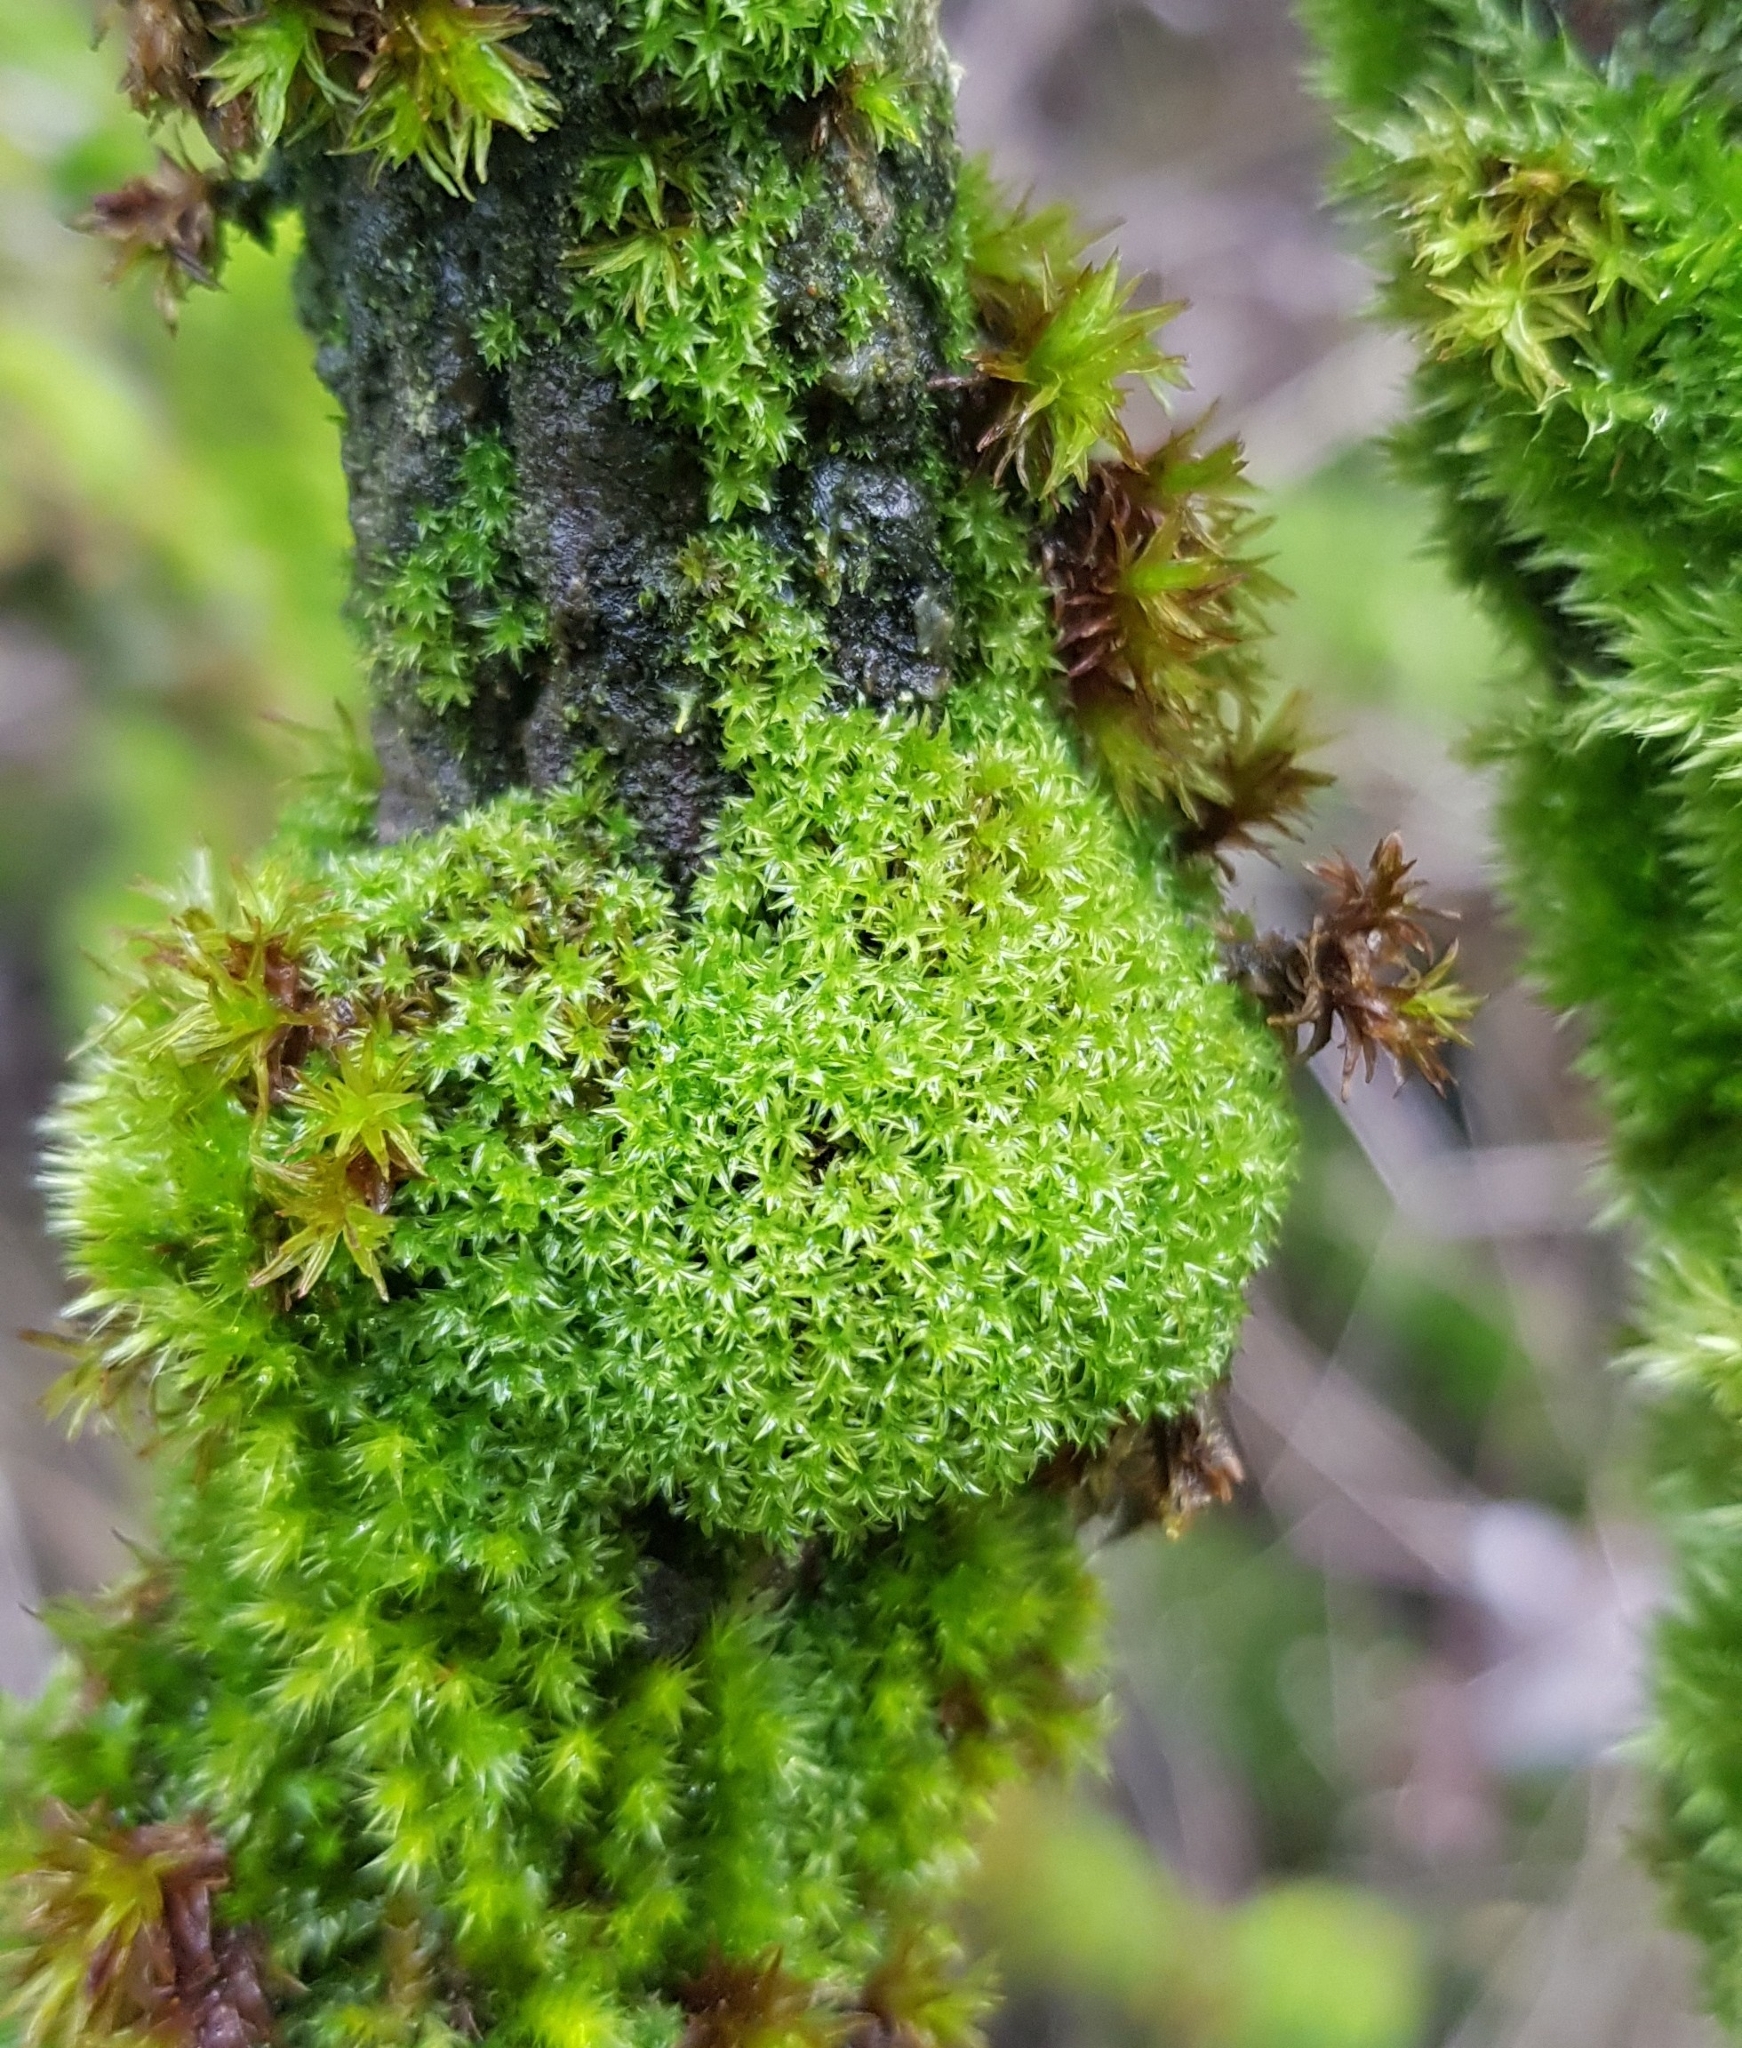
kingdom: Plantae
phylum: Bryophyta
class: Bryopsida
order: Orthotrichales
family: Orthotrichaceae
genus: Zygodon
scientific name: Zygodon viridissimus
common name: Green yoke moss
